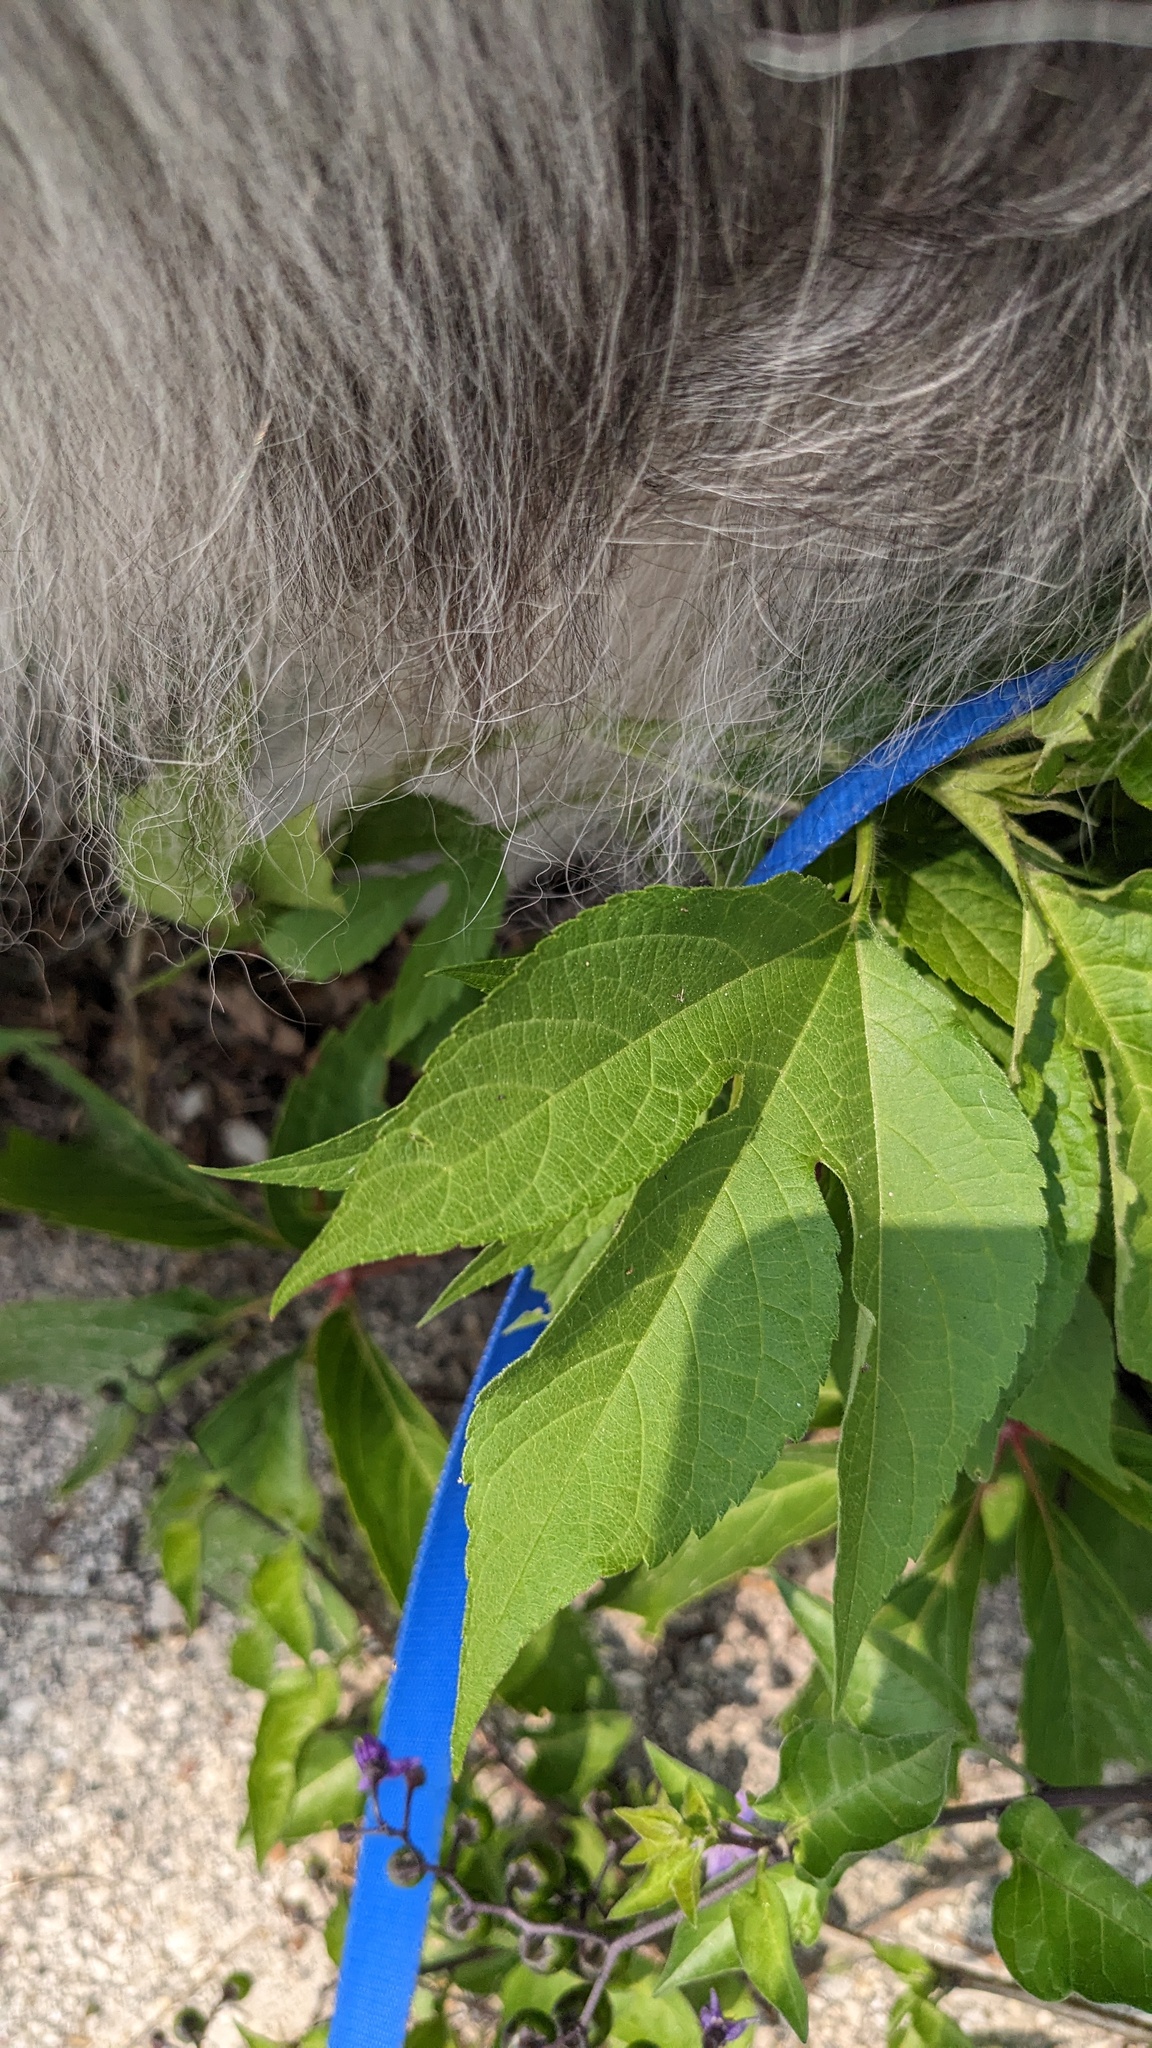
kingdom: Plantae
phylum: Tracheophyta
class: Magnoliopsida
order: Asterales
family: Asteraceae
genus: Ambrosia
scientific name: Ambrosia trifida
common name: Giant ragweed
